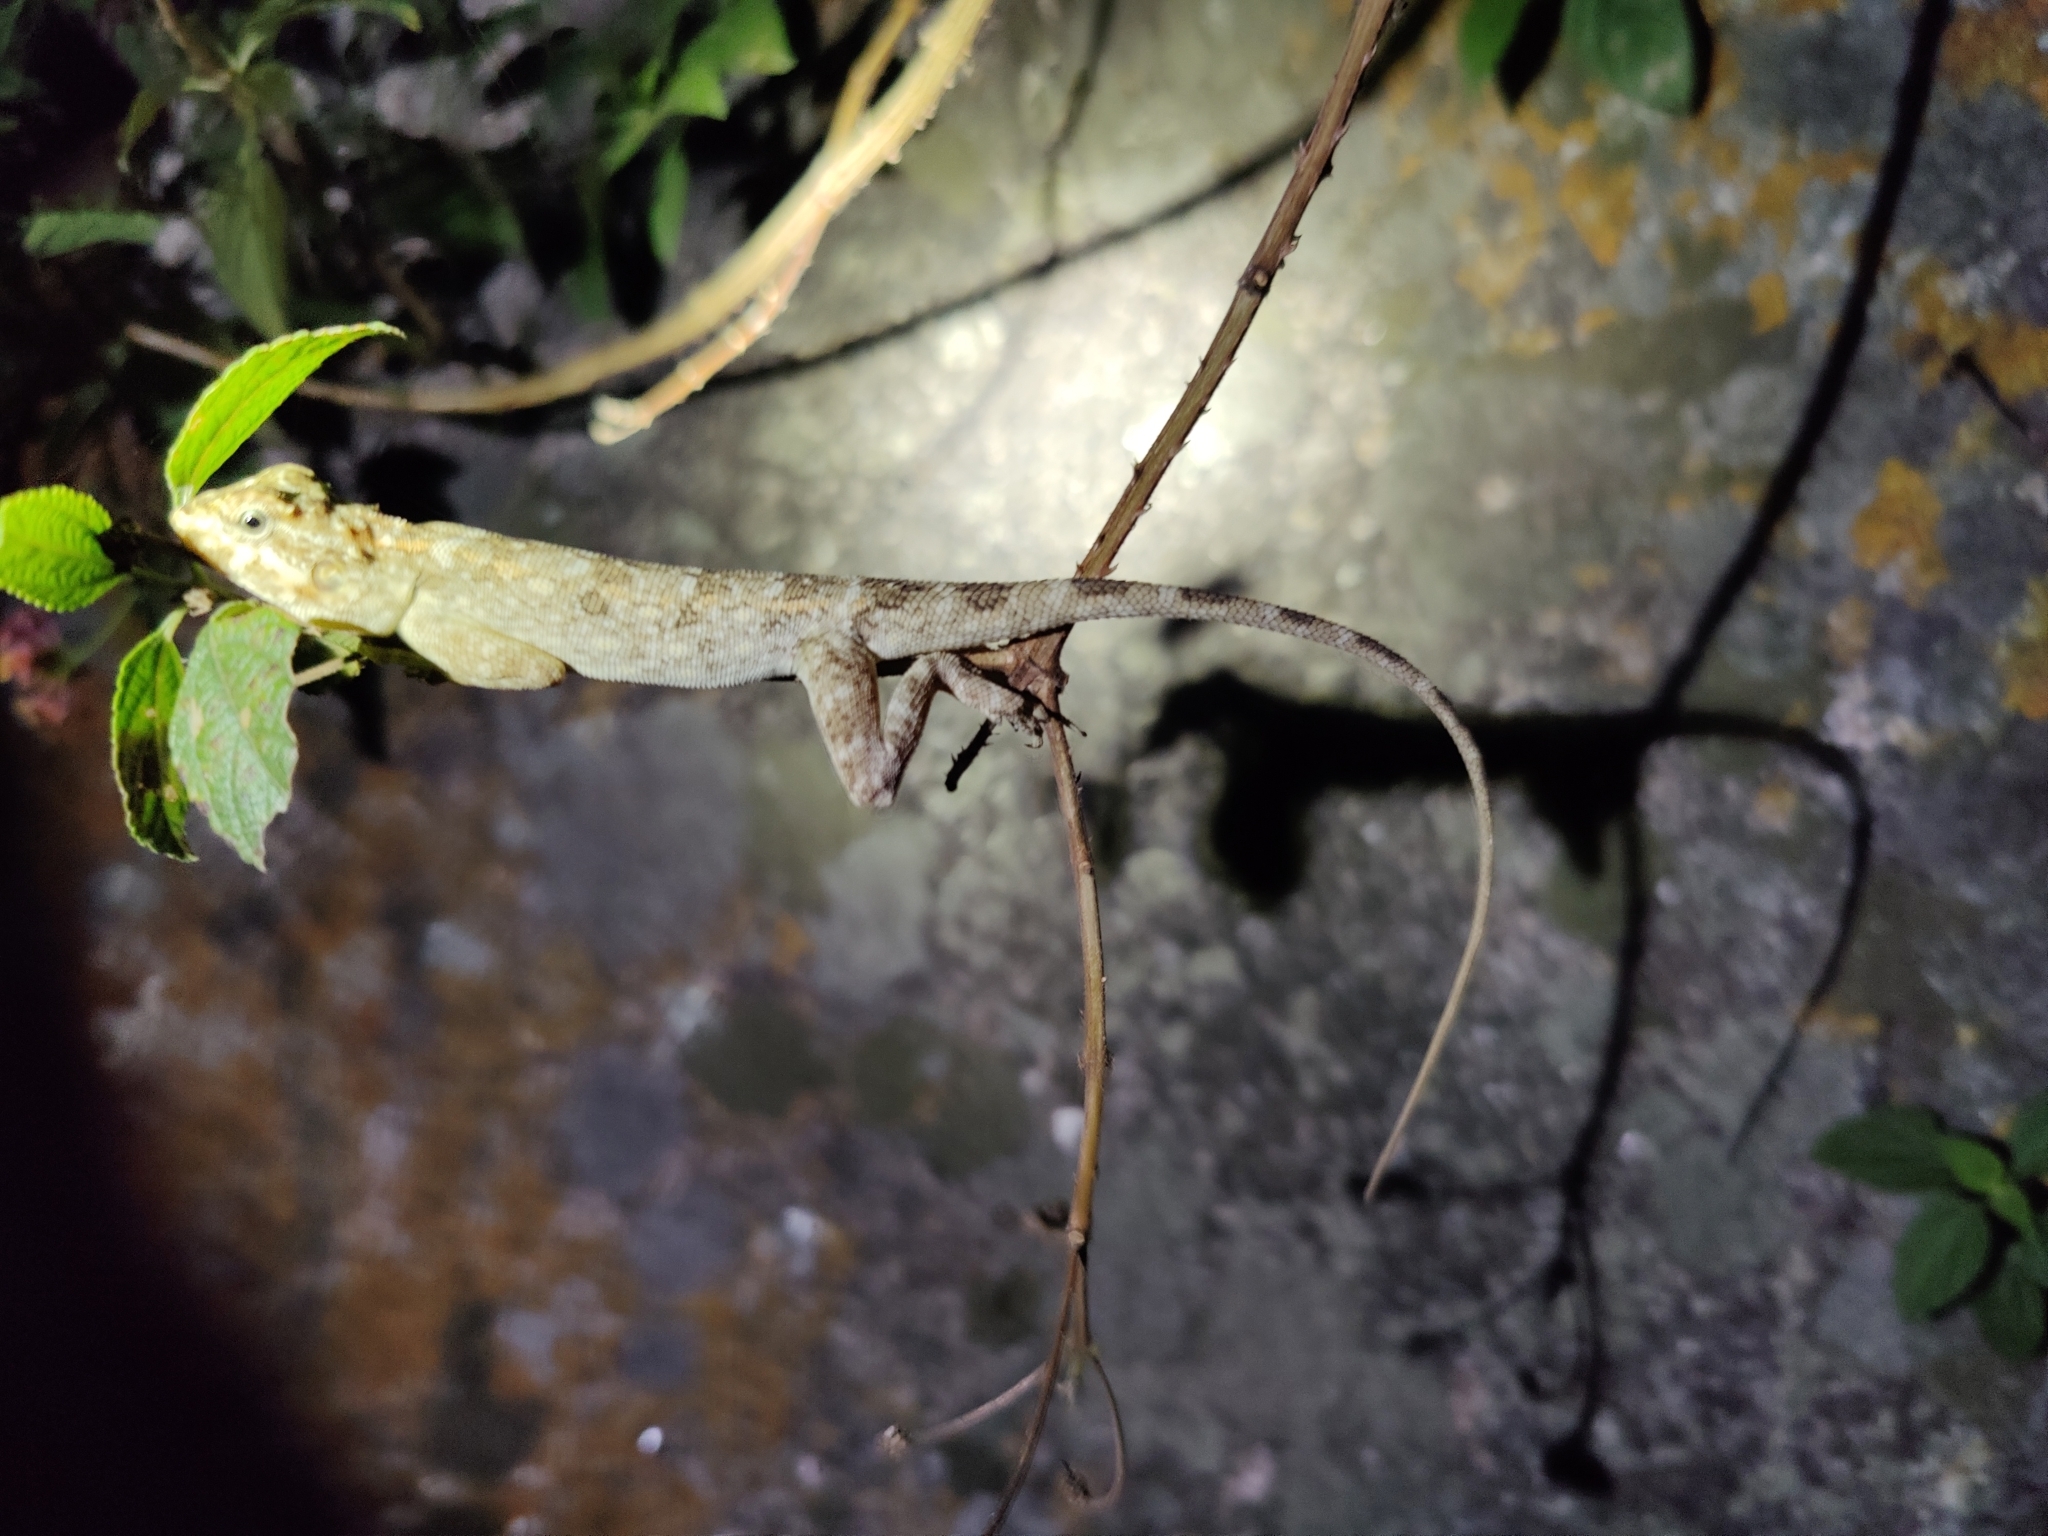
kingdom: Animalia
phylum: Chordata
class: Squamata
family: Agamidae
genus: Calotes
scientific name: Calotes versicolor
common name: Oriental garden lizard
